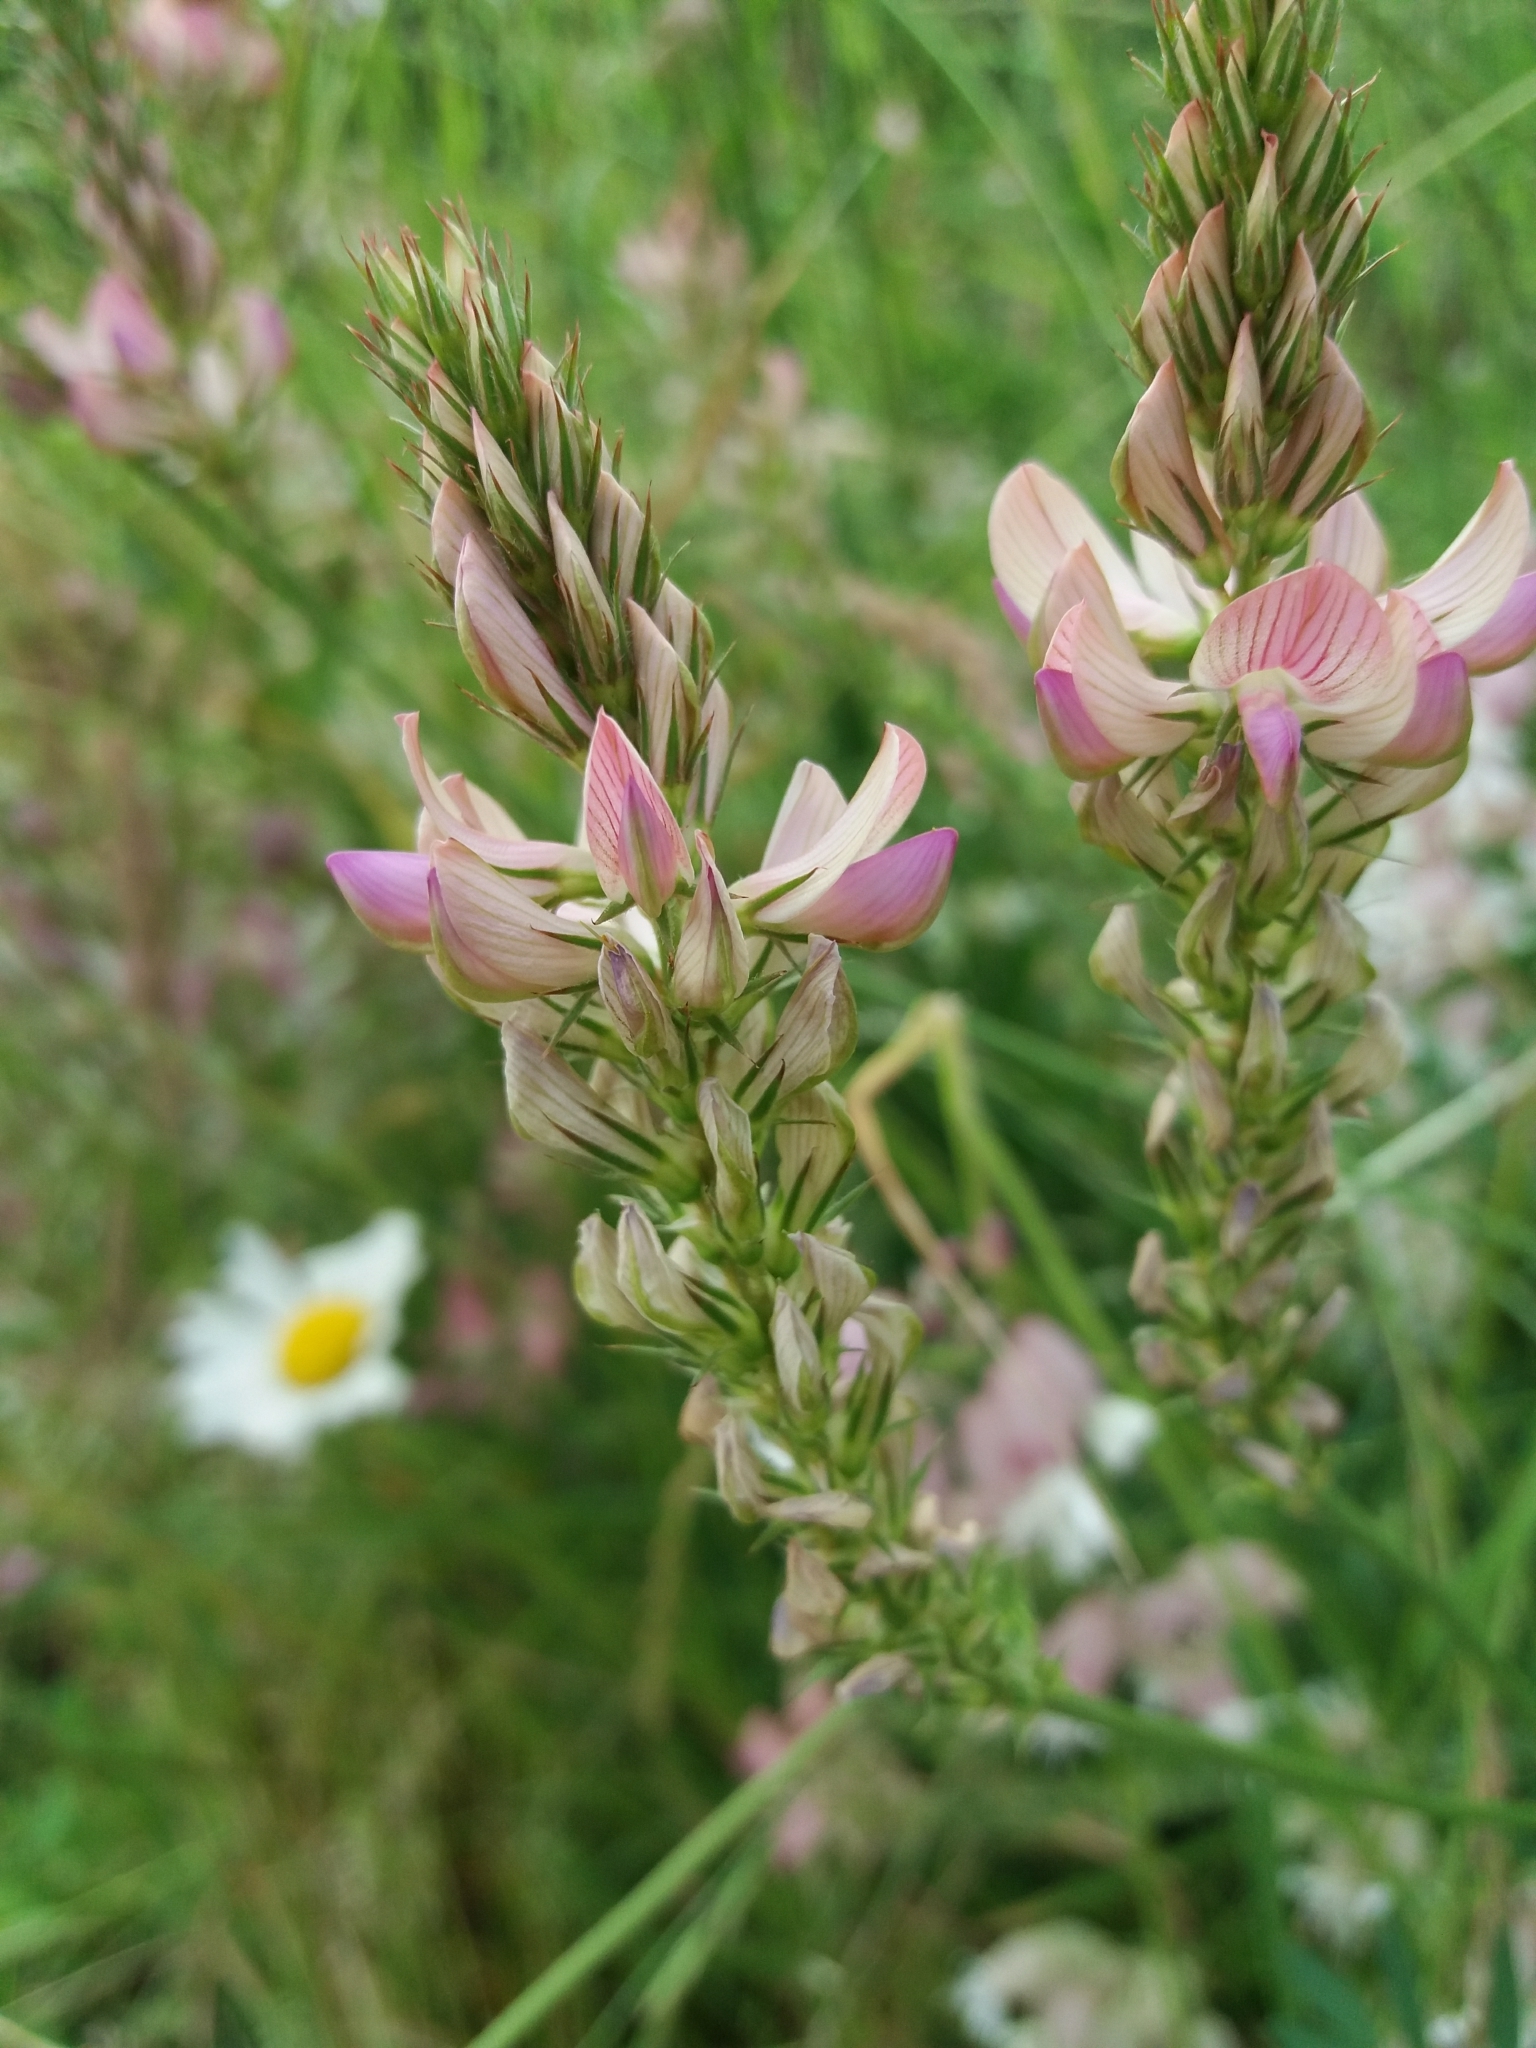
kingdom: Plantae
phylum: Tracheophyta
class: Magnoliopsida
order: Fabales
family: Fabaceae
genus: Onobrychis
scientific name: Onobrychis viciifolia
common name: Sainfoin
